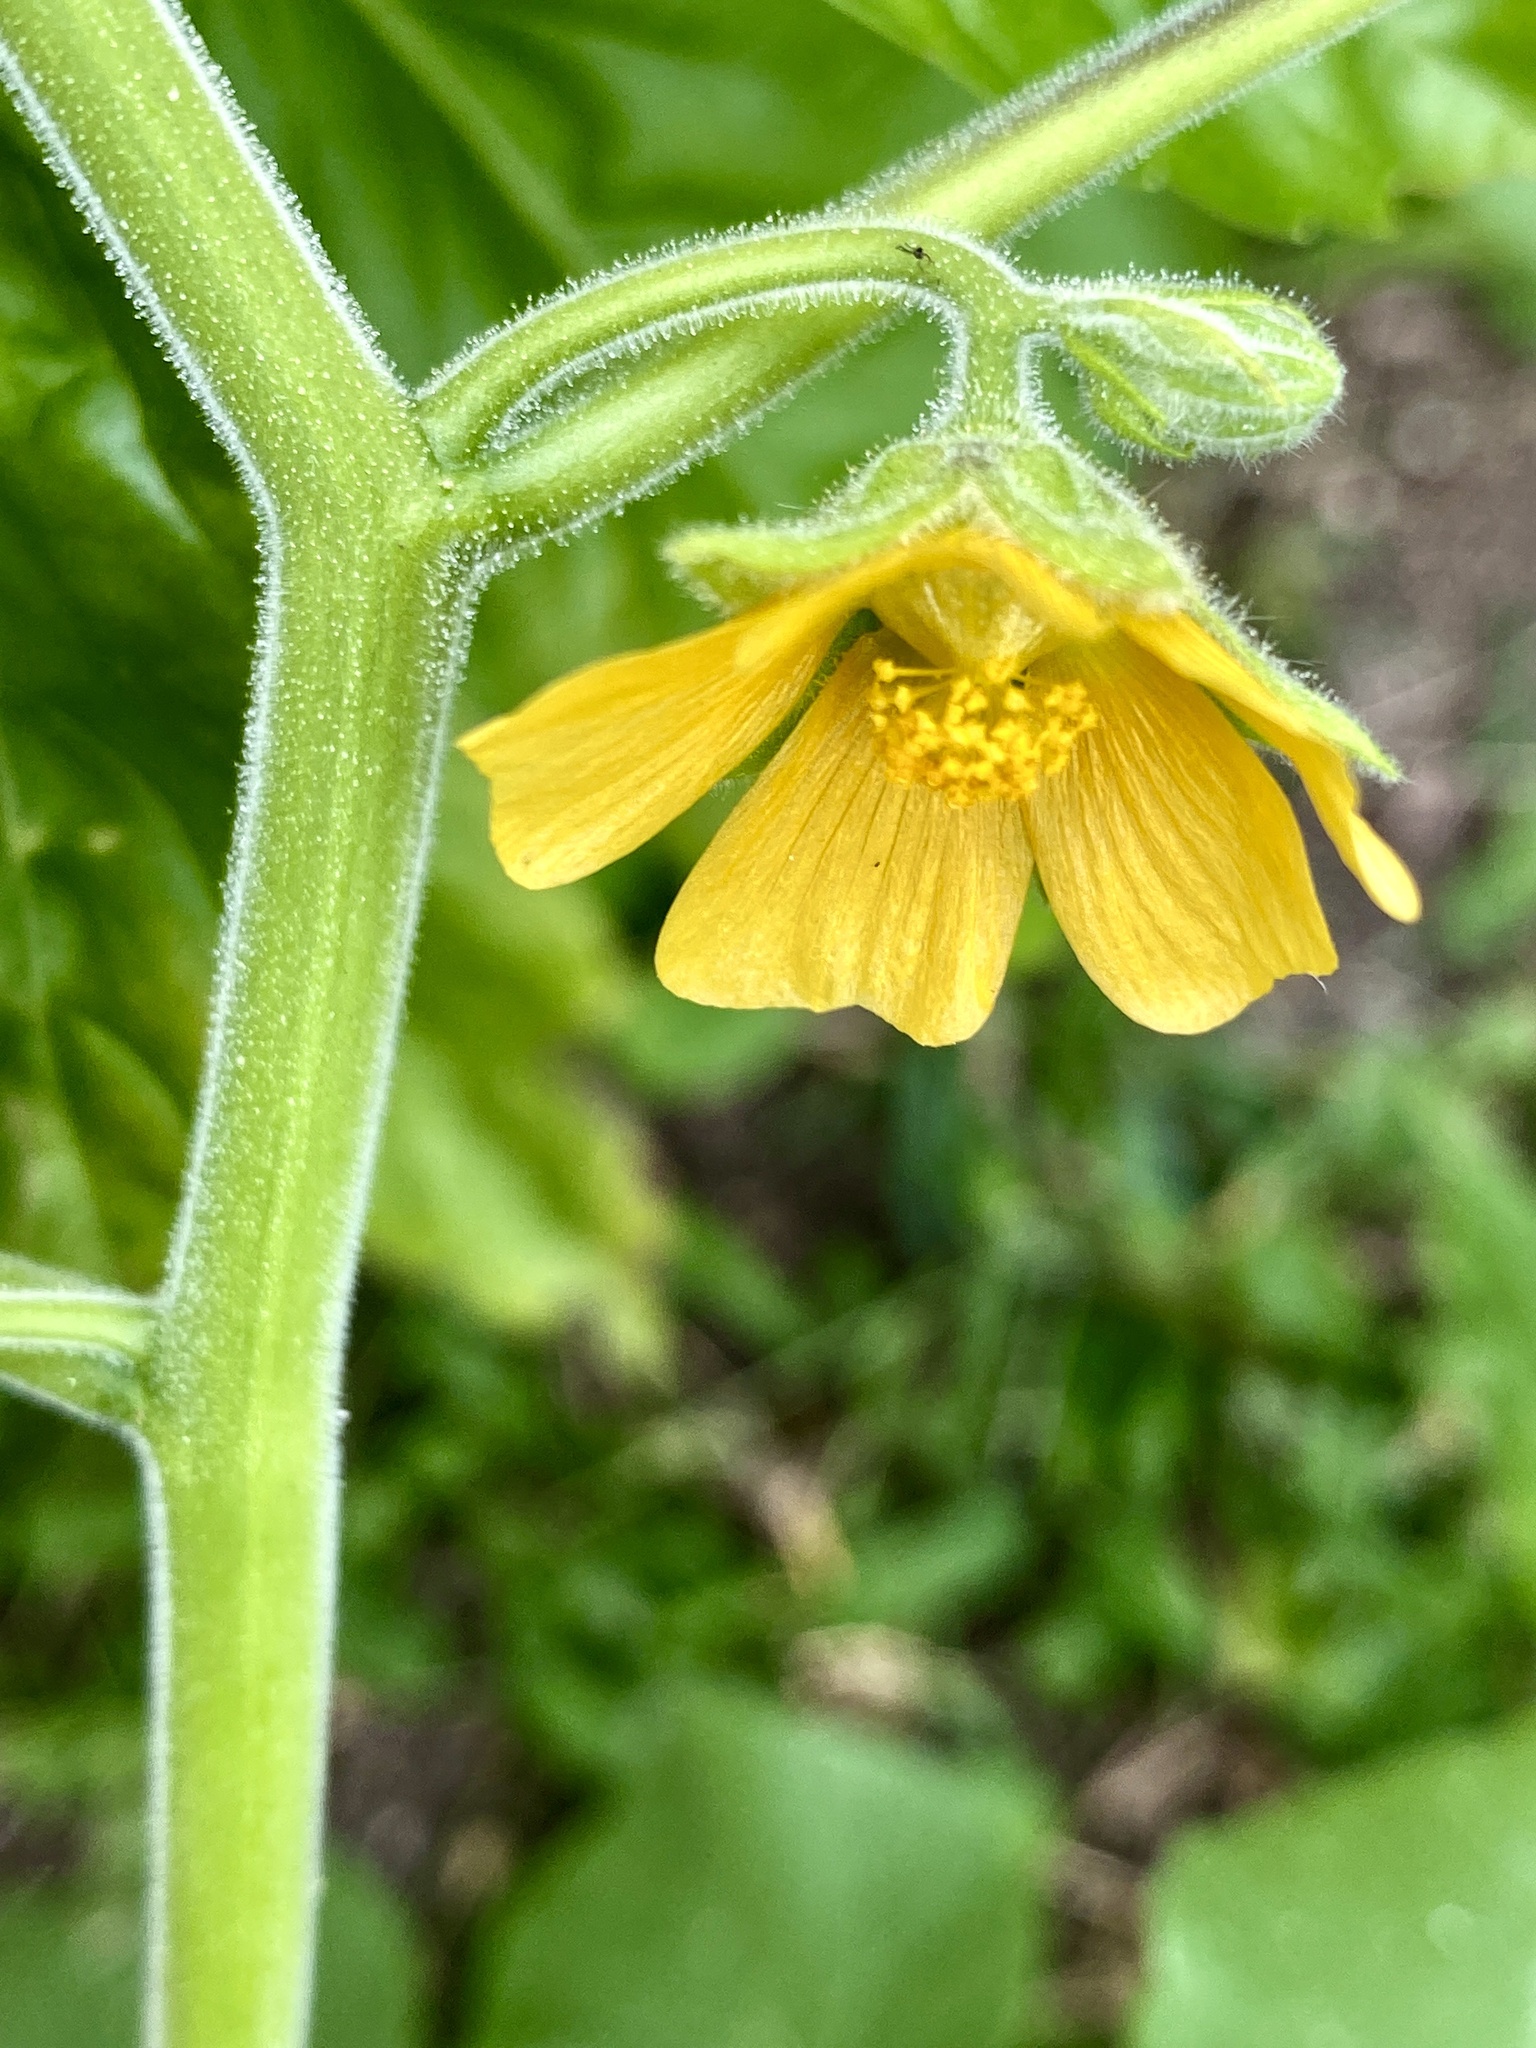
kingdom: Plantae
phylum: Tracheophyta
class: Magnoliopsida
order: Malvales
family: Malvaceae
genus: Abutilon
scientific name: Abutilon theophrasti
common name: Velvetleaf
